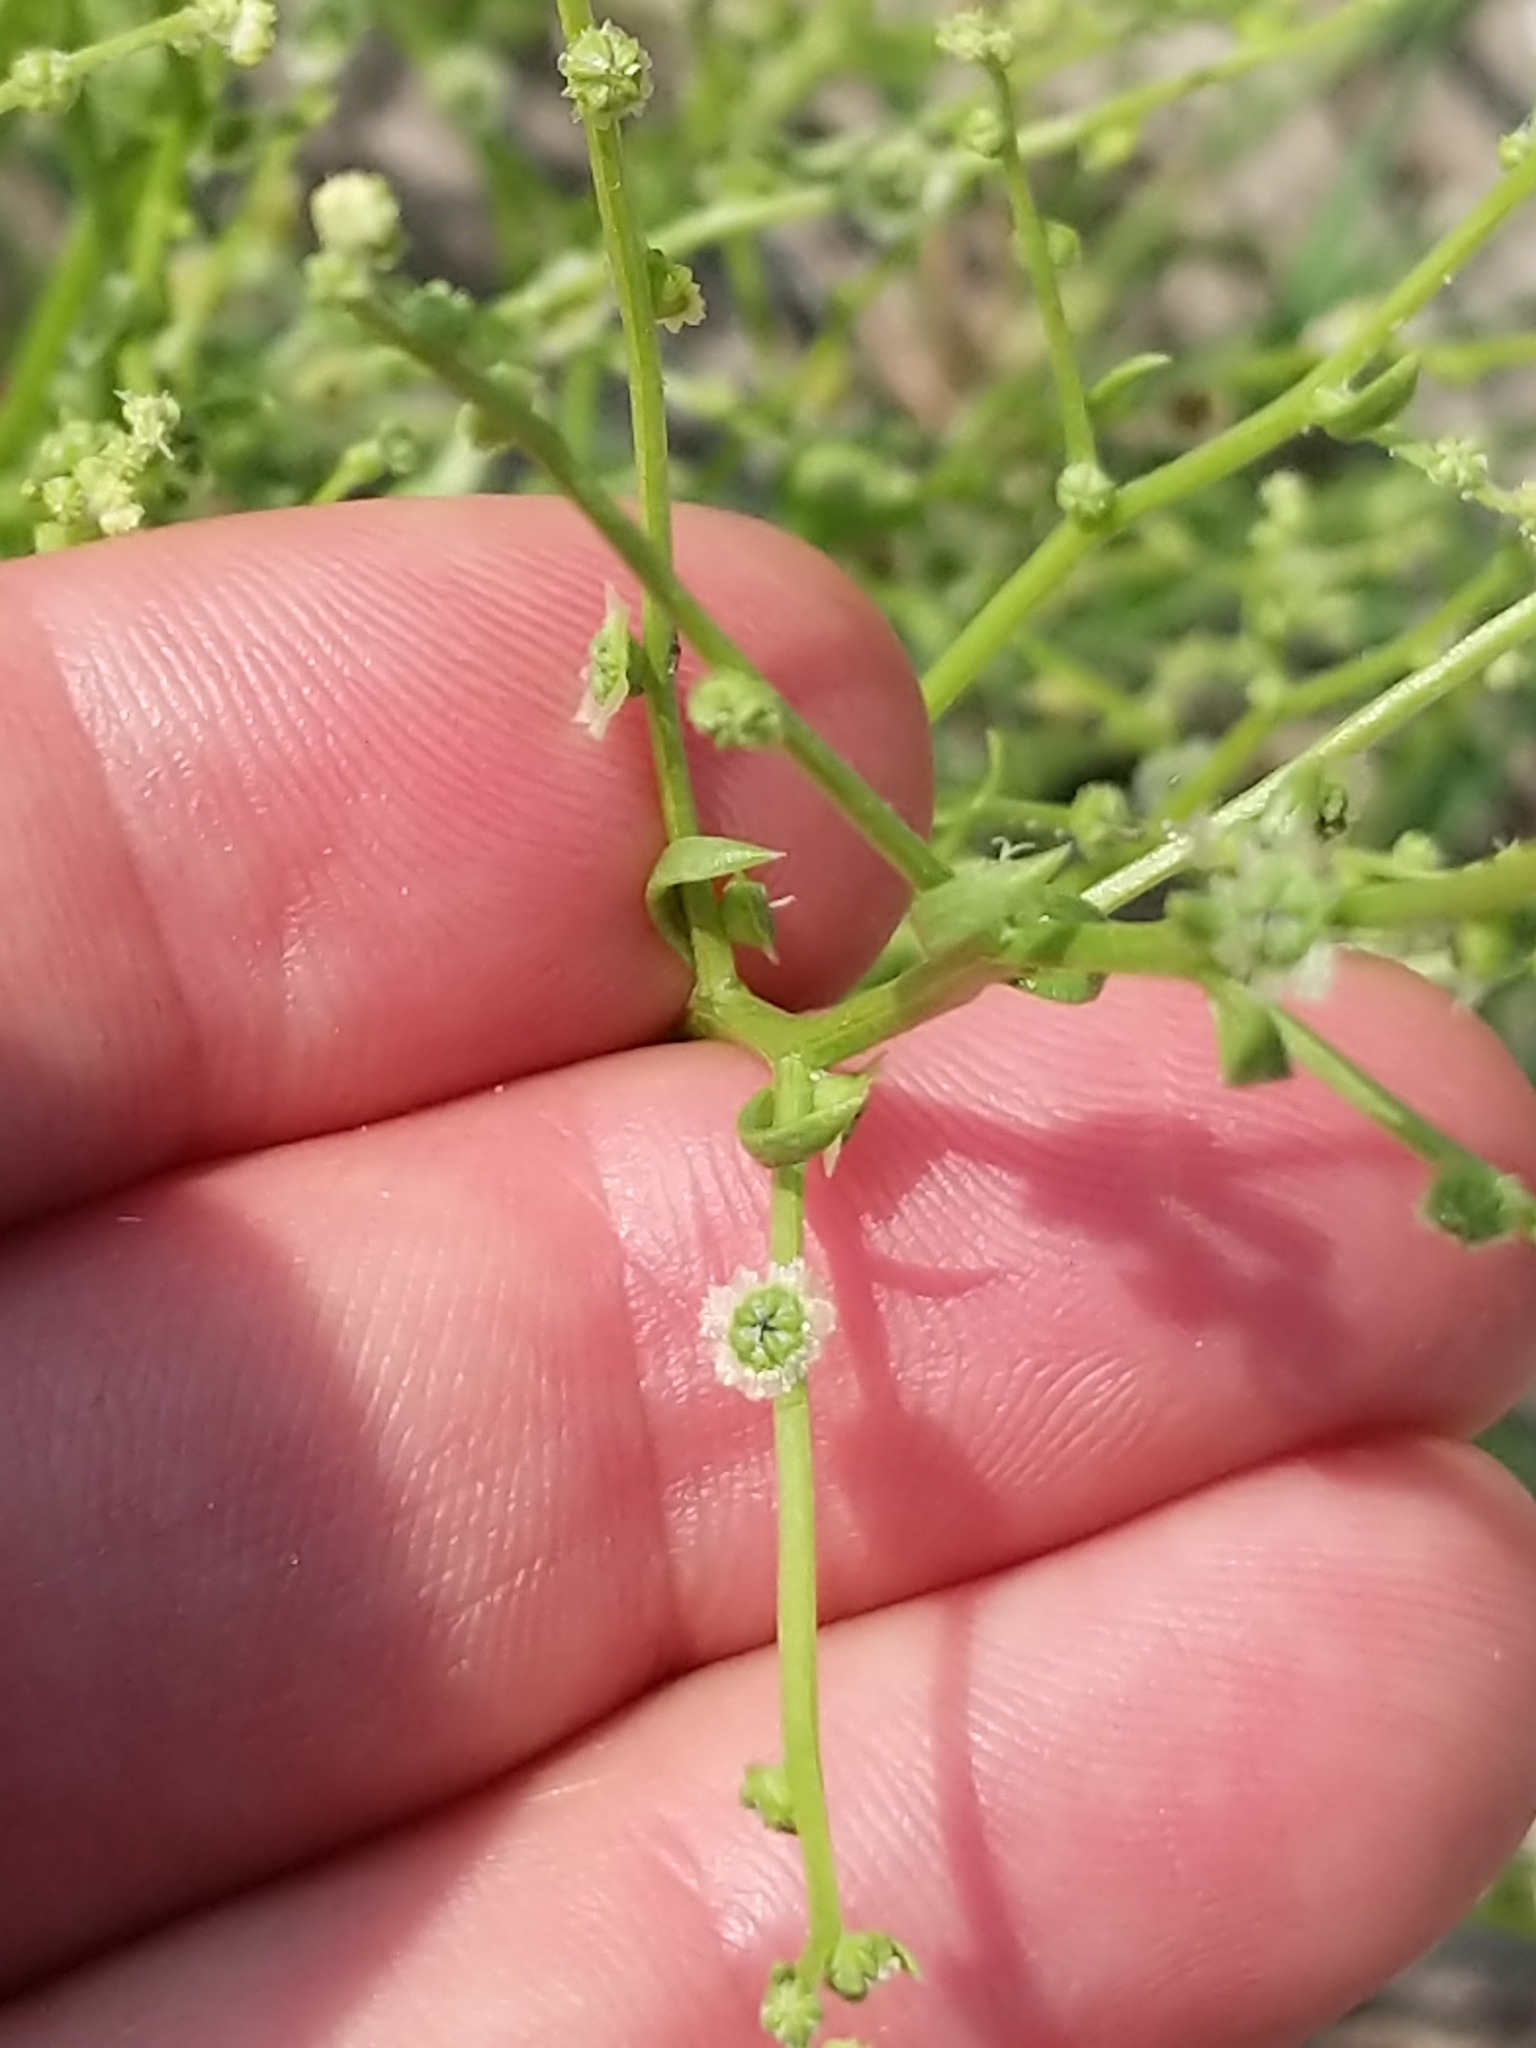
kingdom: Plantae
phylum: Tracheophyta
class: Magnoliopsida
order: Caryophyllales
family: Amaranthaceae
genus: Dysphania
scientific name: Dysphania atriplicifolia
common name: Plains tumbleweed
